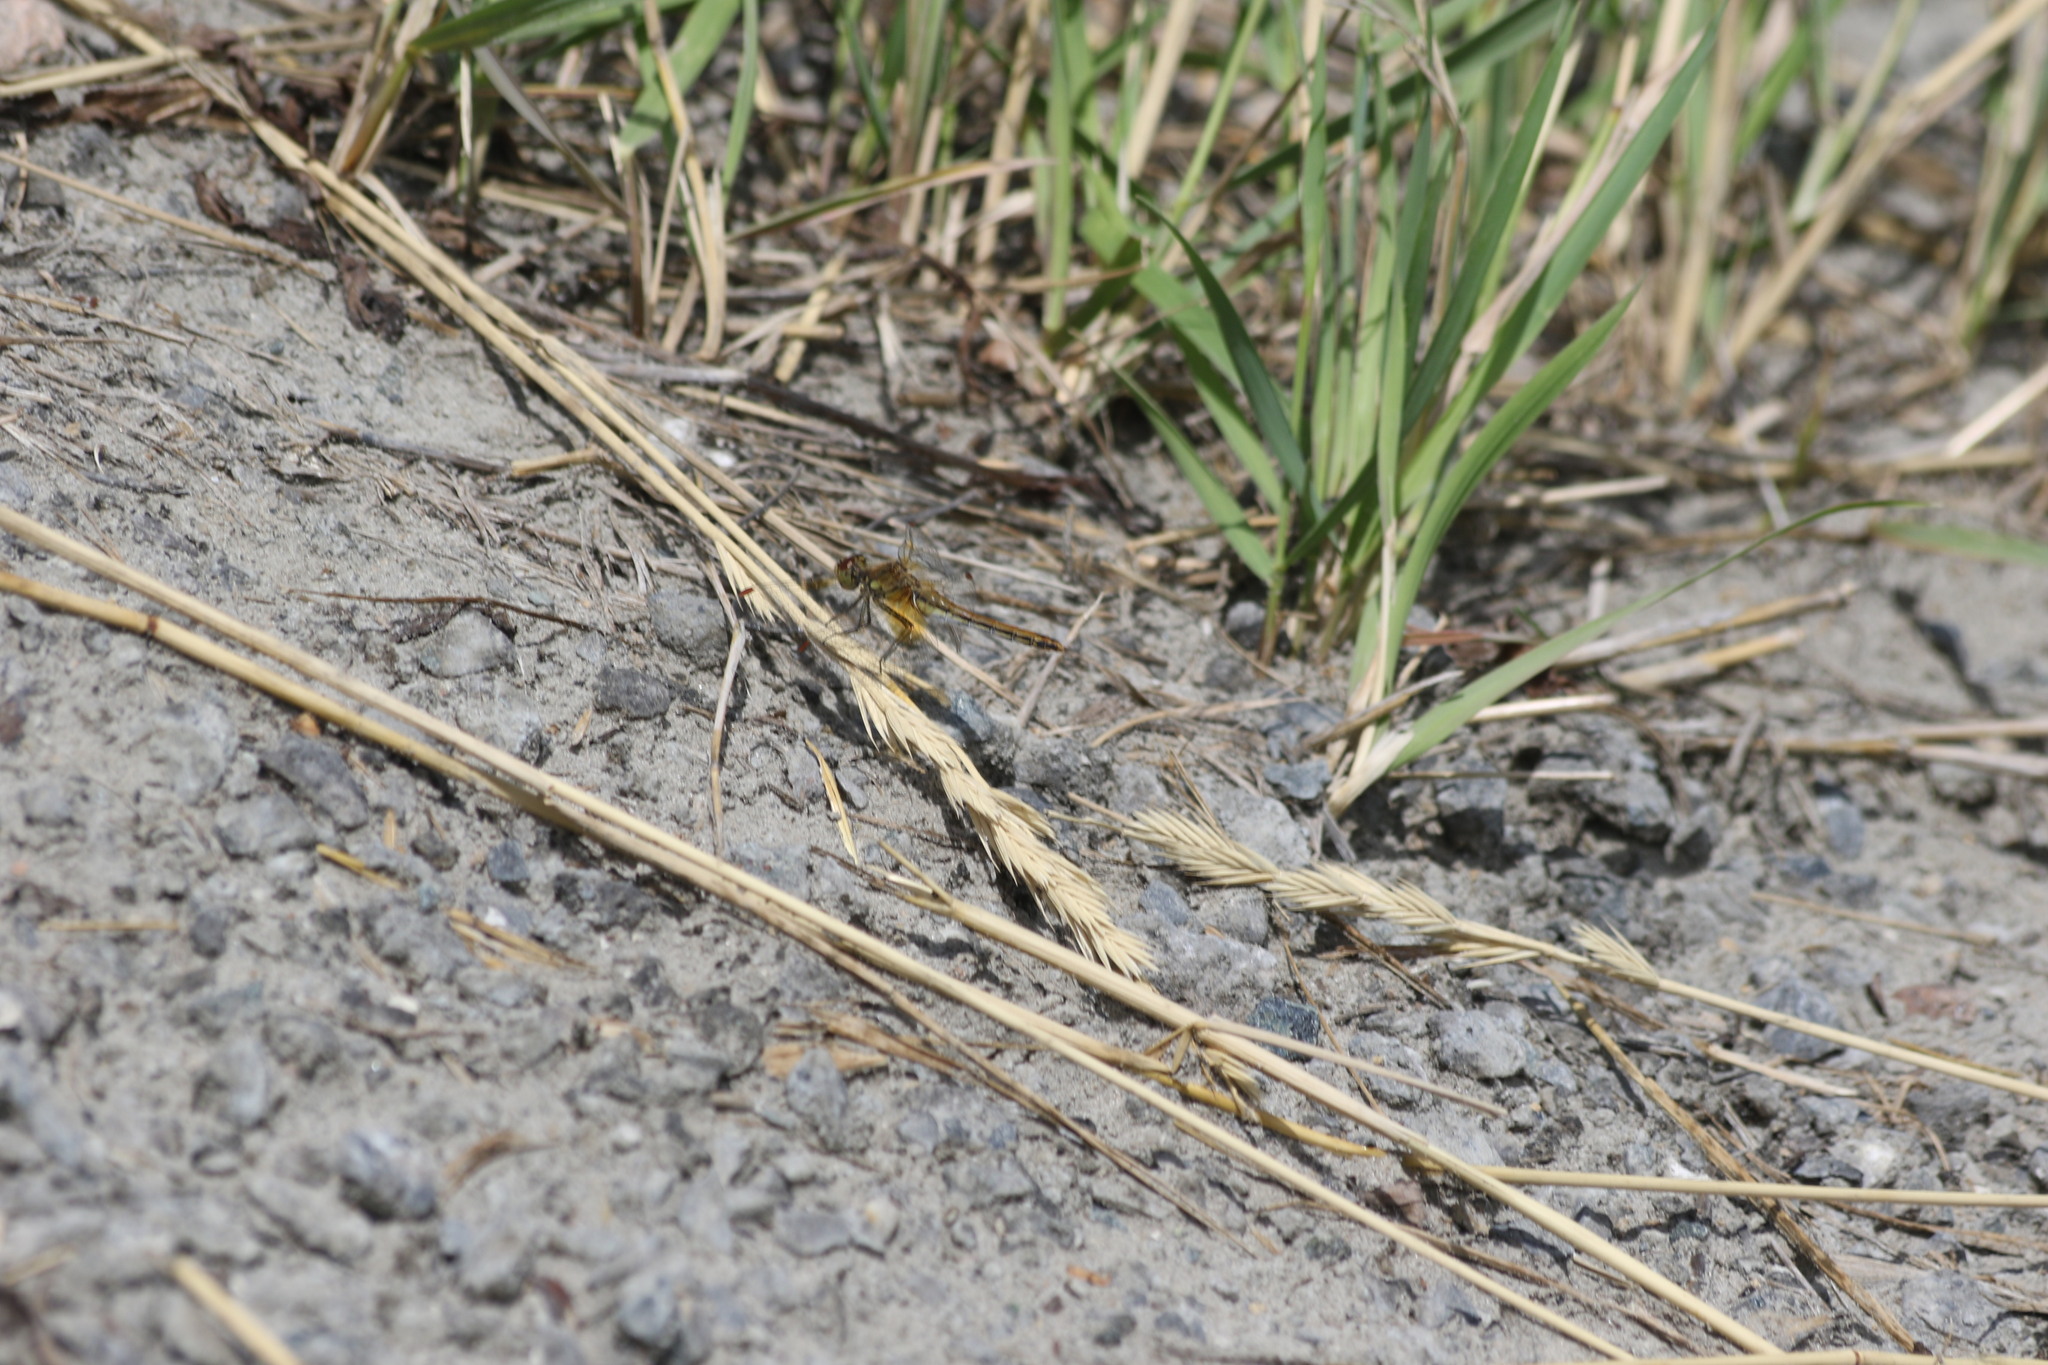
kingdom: Animalia
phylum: Arthropoda
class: Insecta
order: Odonata
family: Libellulidae
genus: Sympetrum
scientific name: Sympetrum flaveolum
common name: Yellow-winged darter
